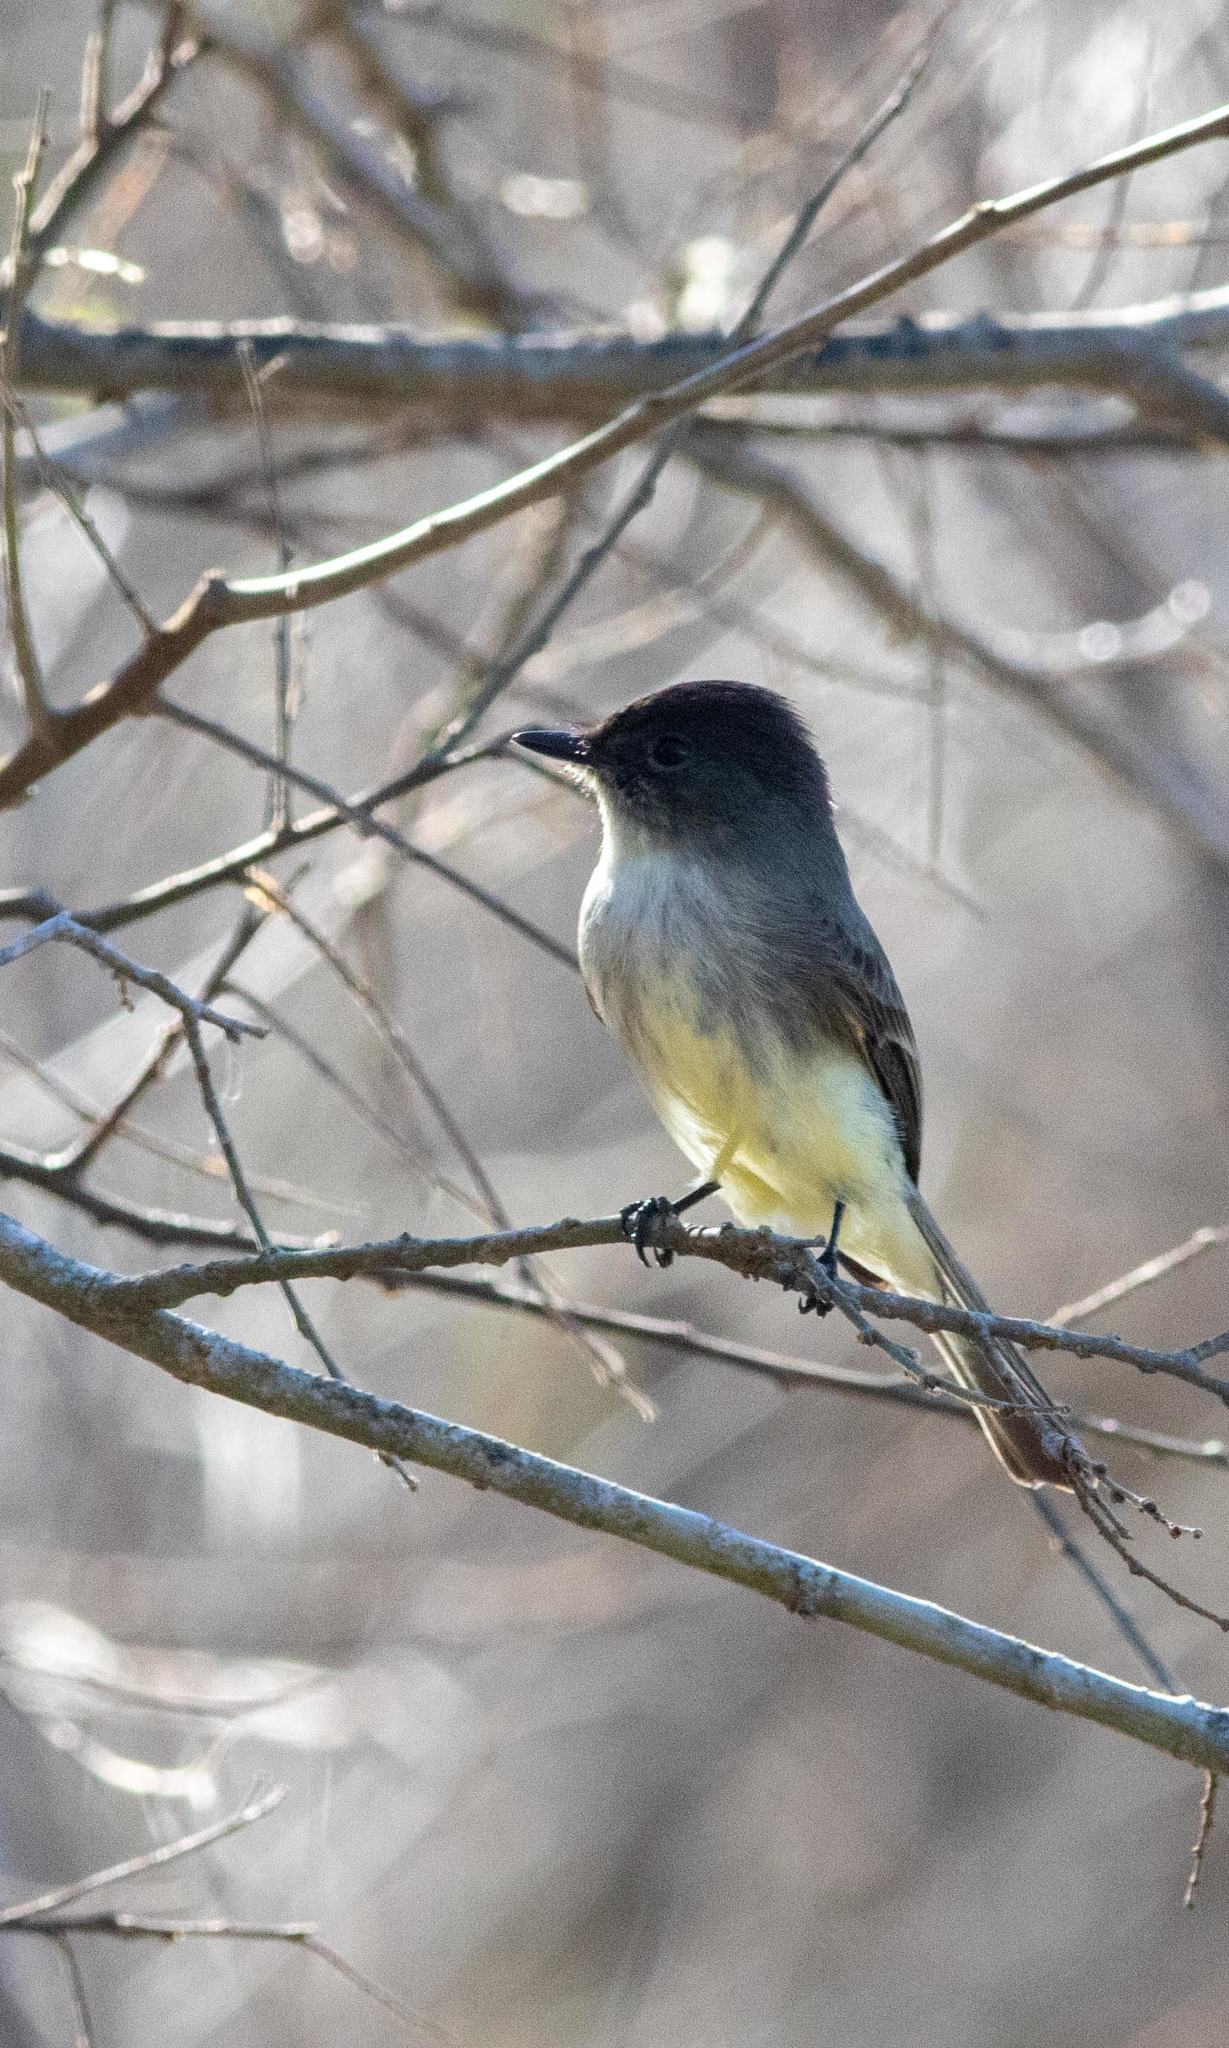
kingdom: Animalia
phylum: Chordata
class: Aves
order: Passeriformes
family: Tyrannidae
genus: Sayornis
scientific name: Sayornis phoebe
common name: Eastern phoebe
